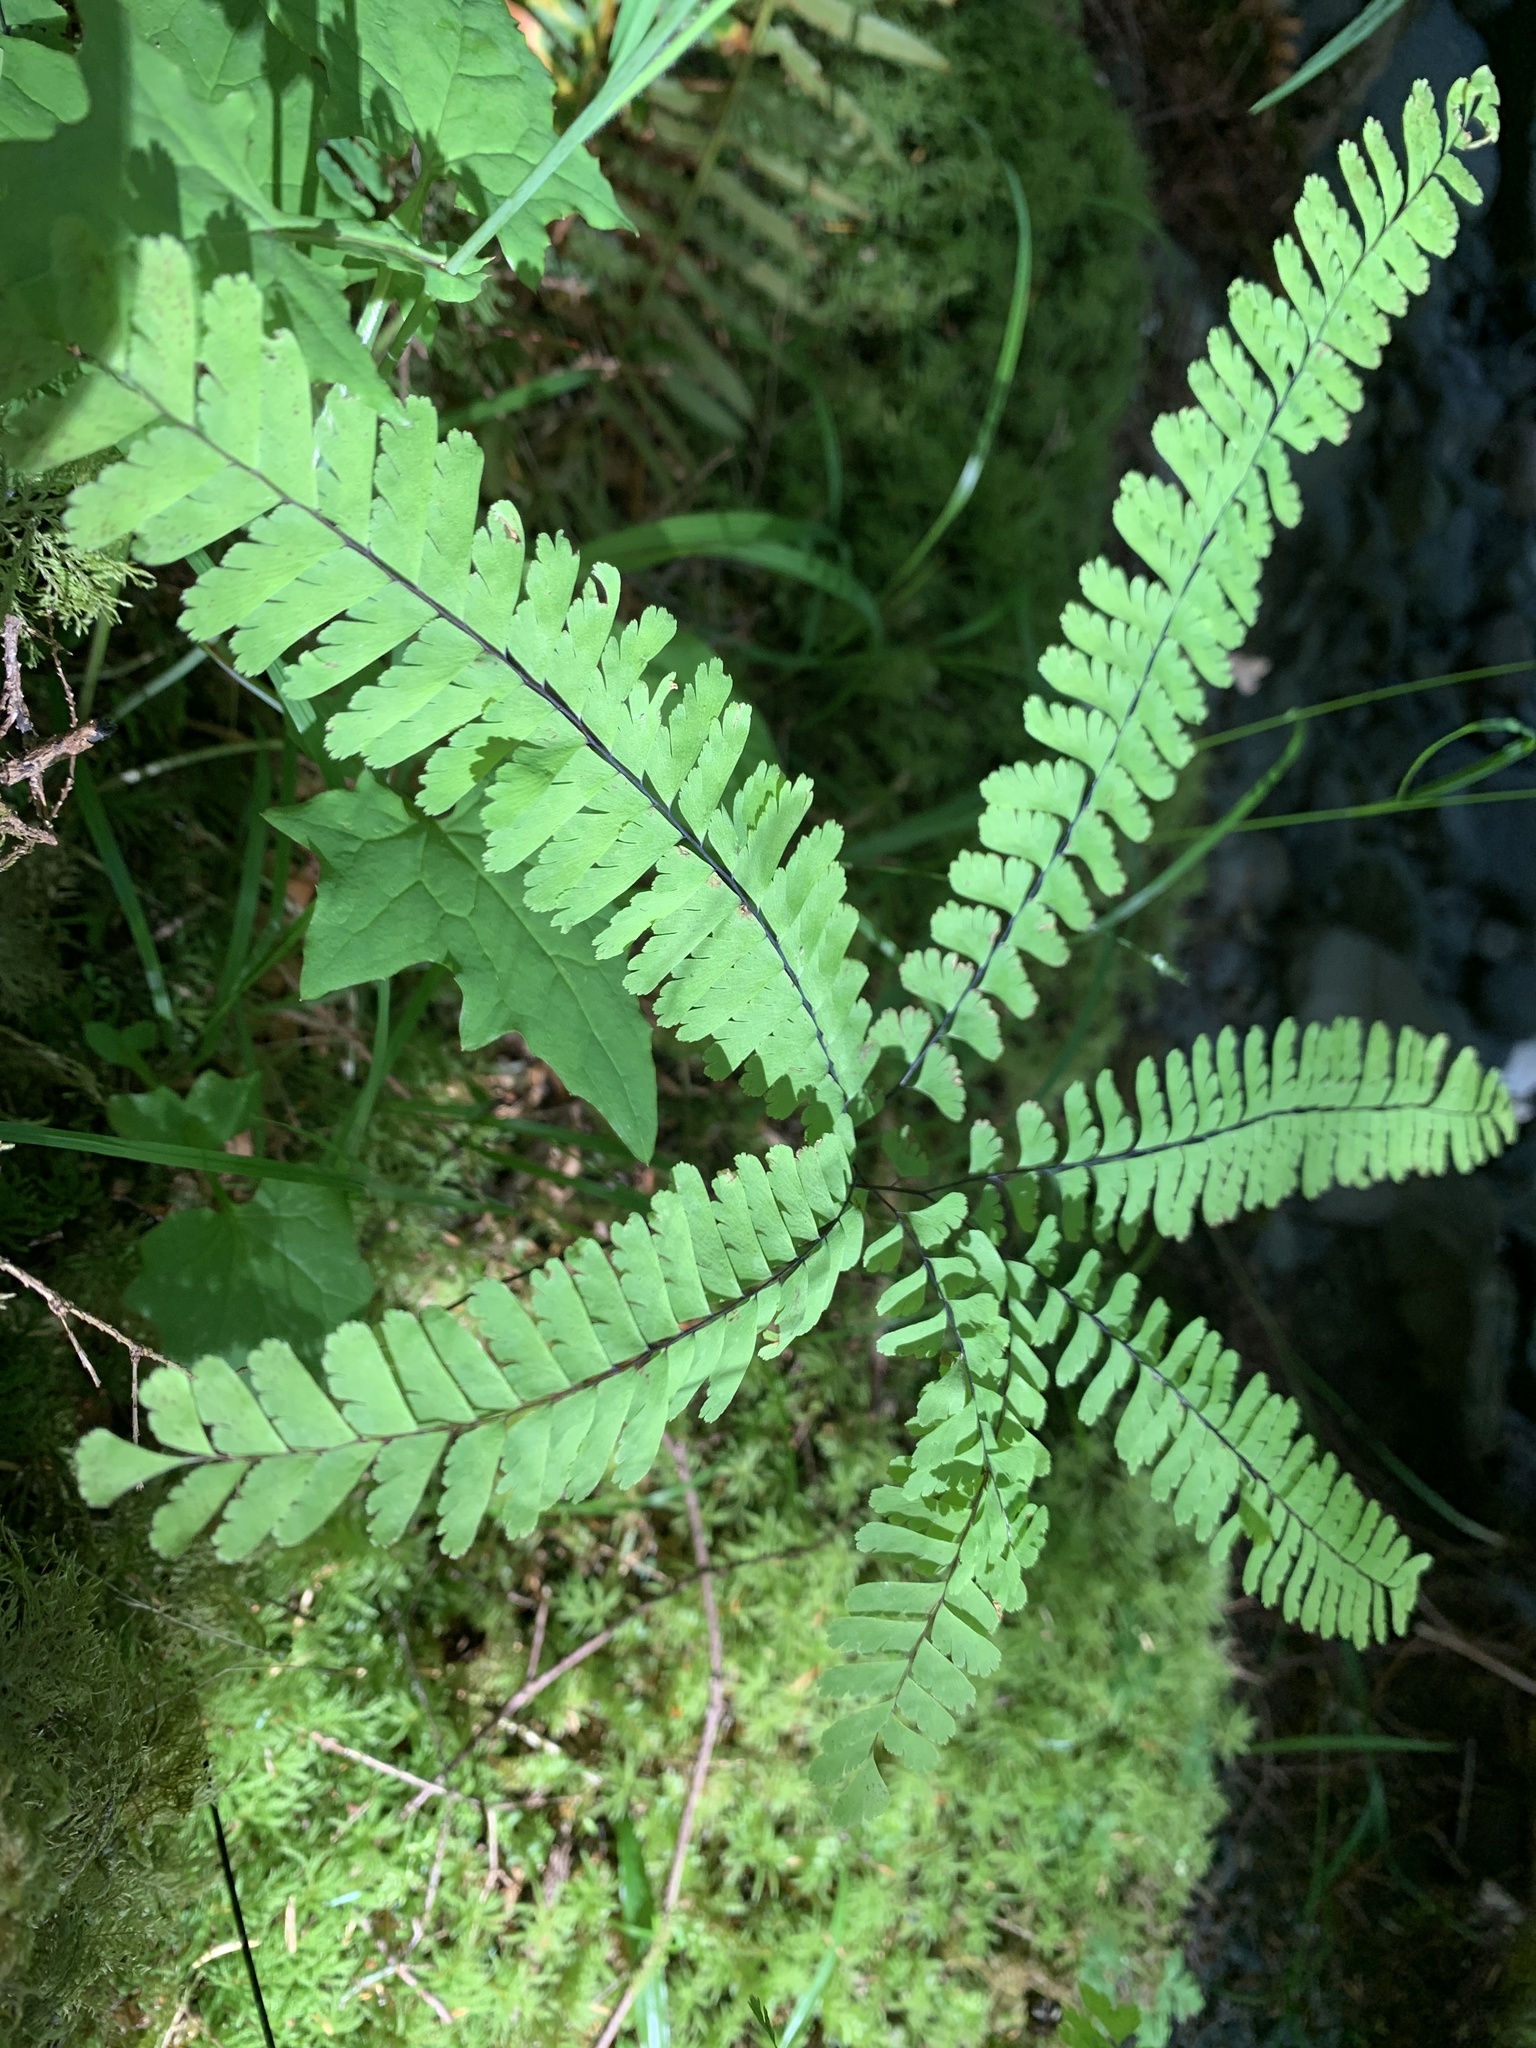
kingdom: Plantae
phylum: Tracheophyta
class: Polypodiopsida
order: Polypodiales
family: Pteridaceae
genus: Adiantum
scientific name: Adiantum aleuticum
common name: Aleutian maidenhair fern
